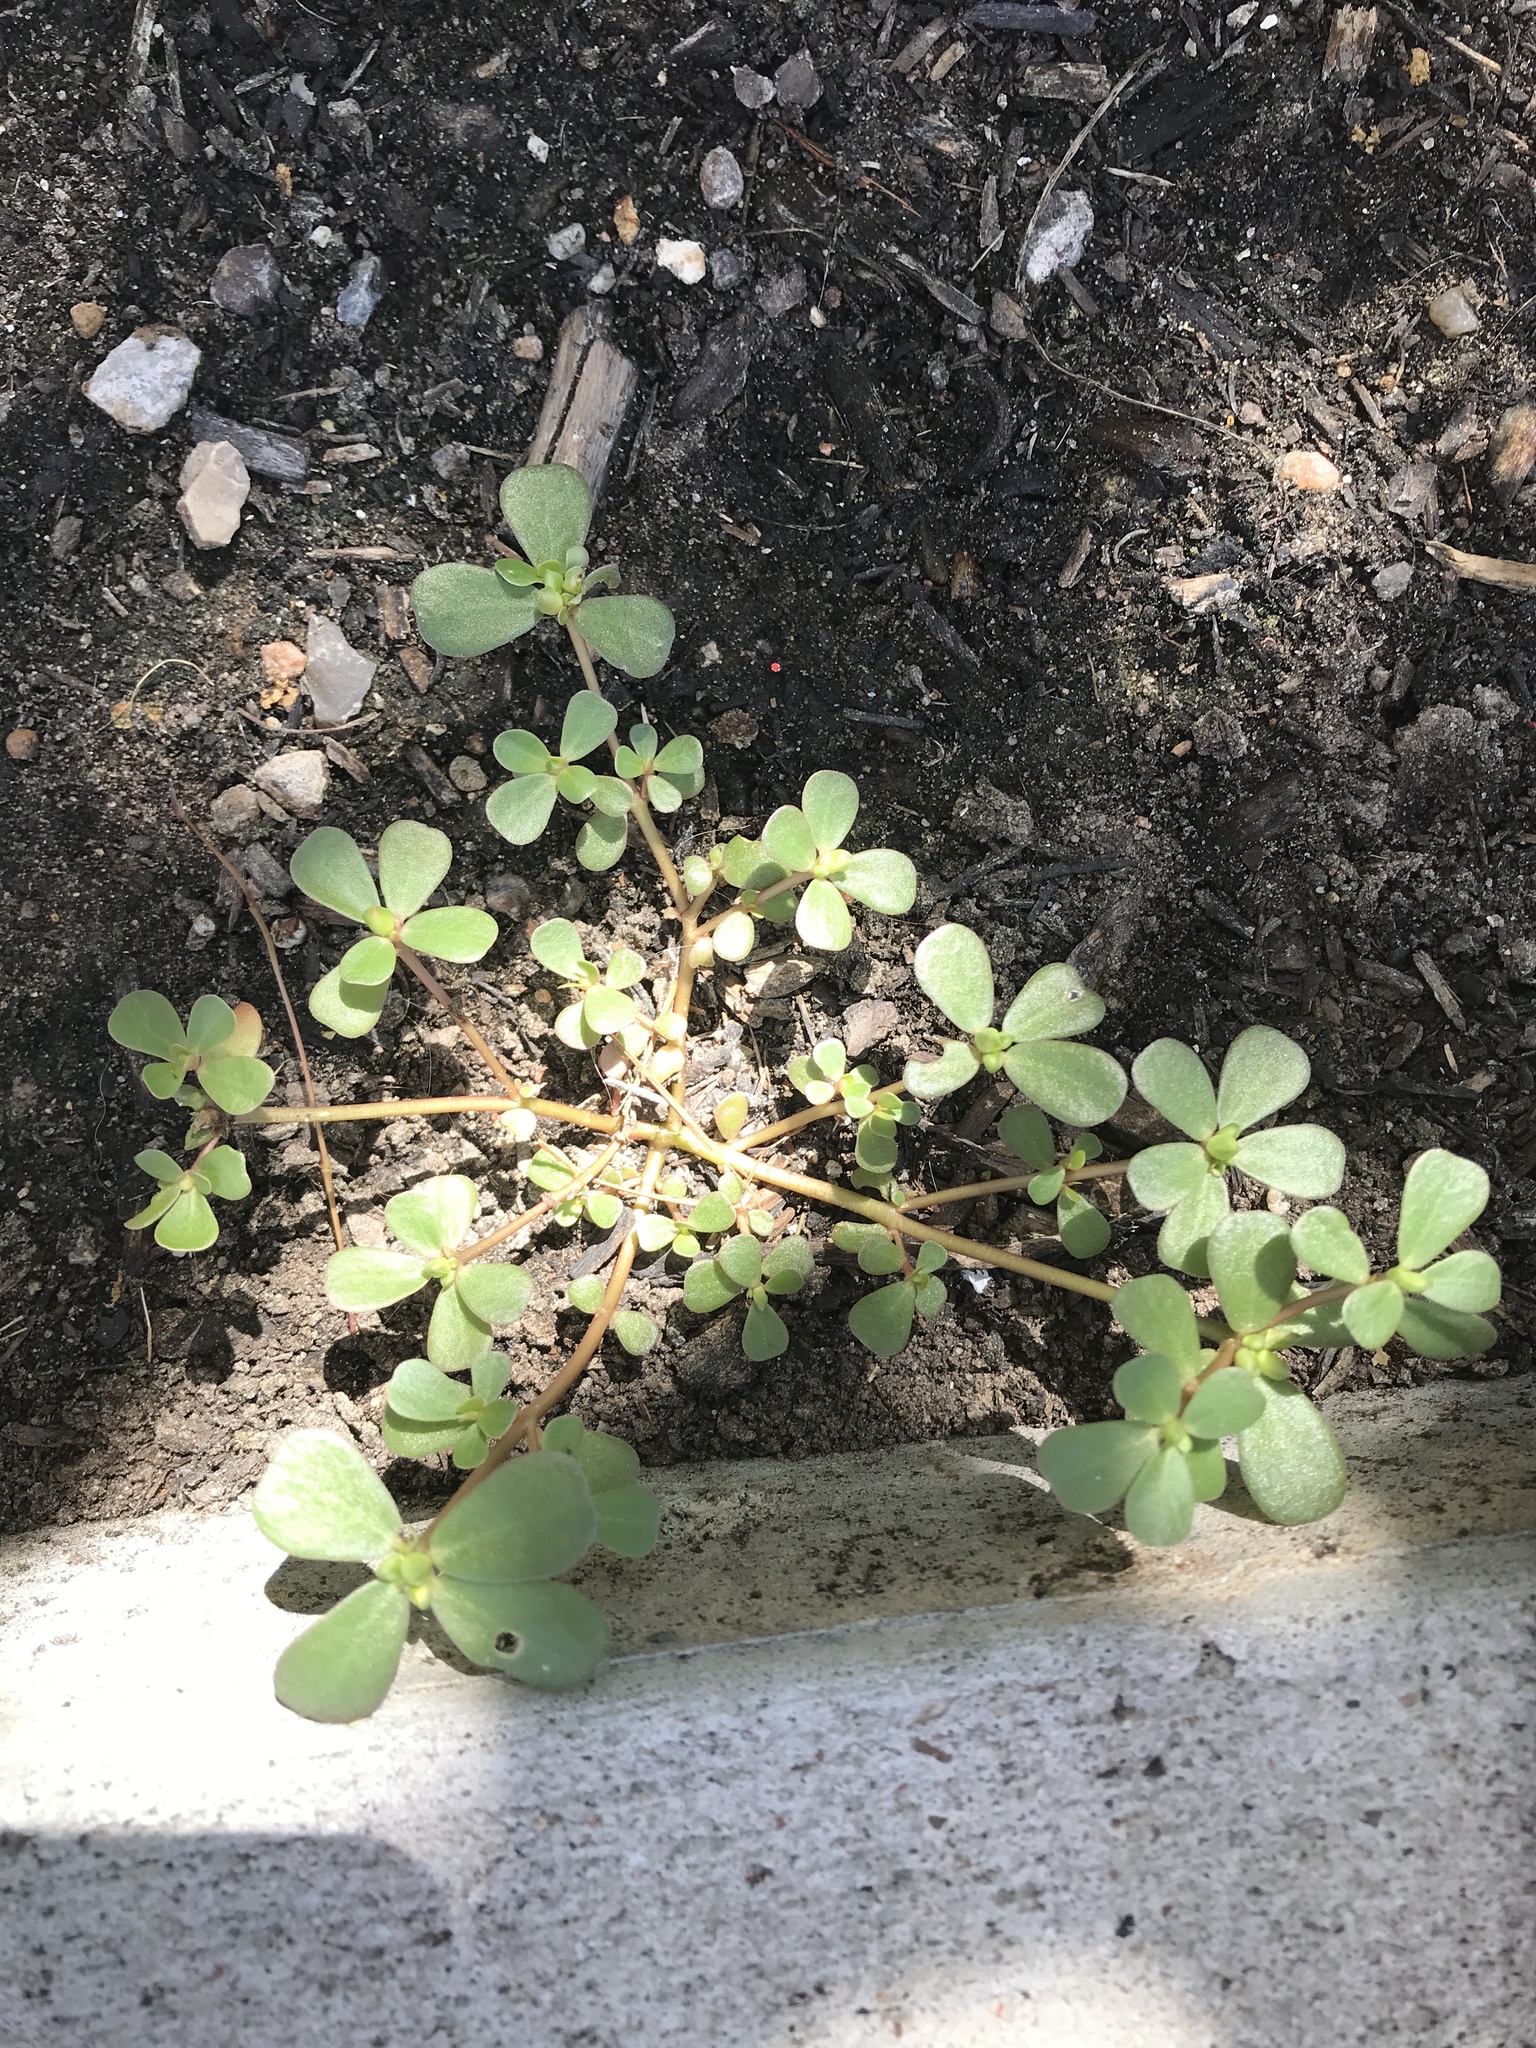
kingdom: Plantae
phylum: Tracheophyta
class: Magnoliopsida
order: Caryophyllales
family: Portulacaceae
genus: Portulaca
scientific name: Portulaca oleracea
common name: Common purslane
